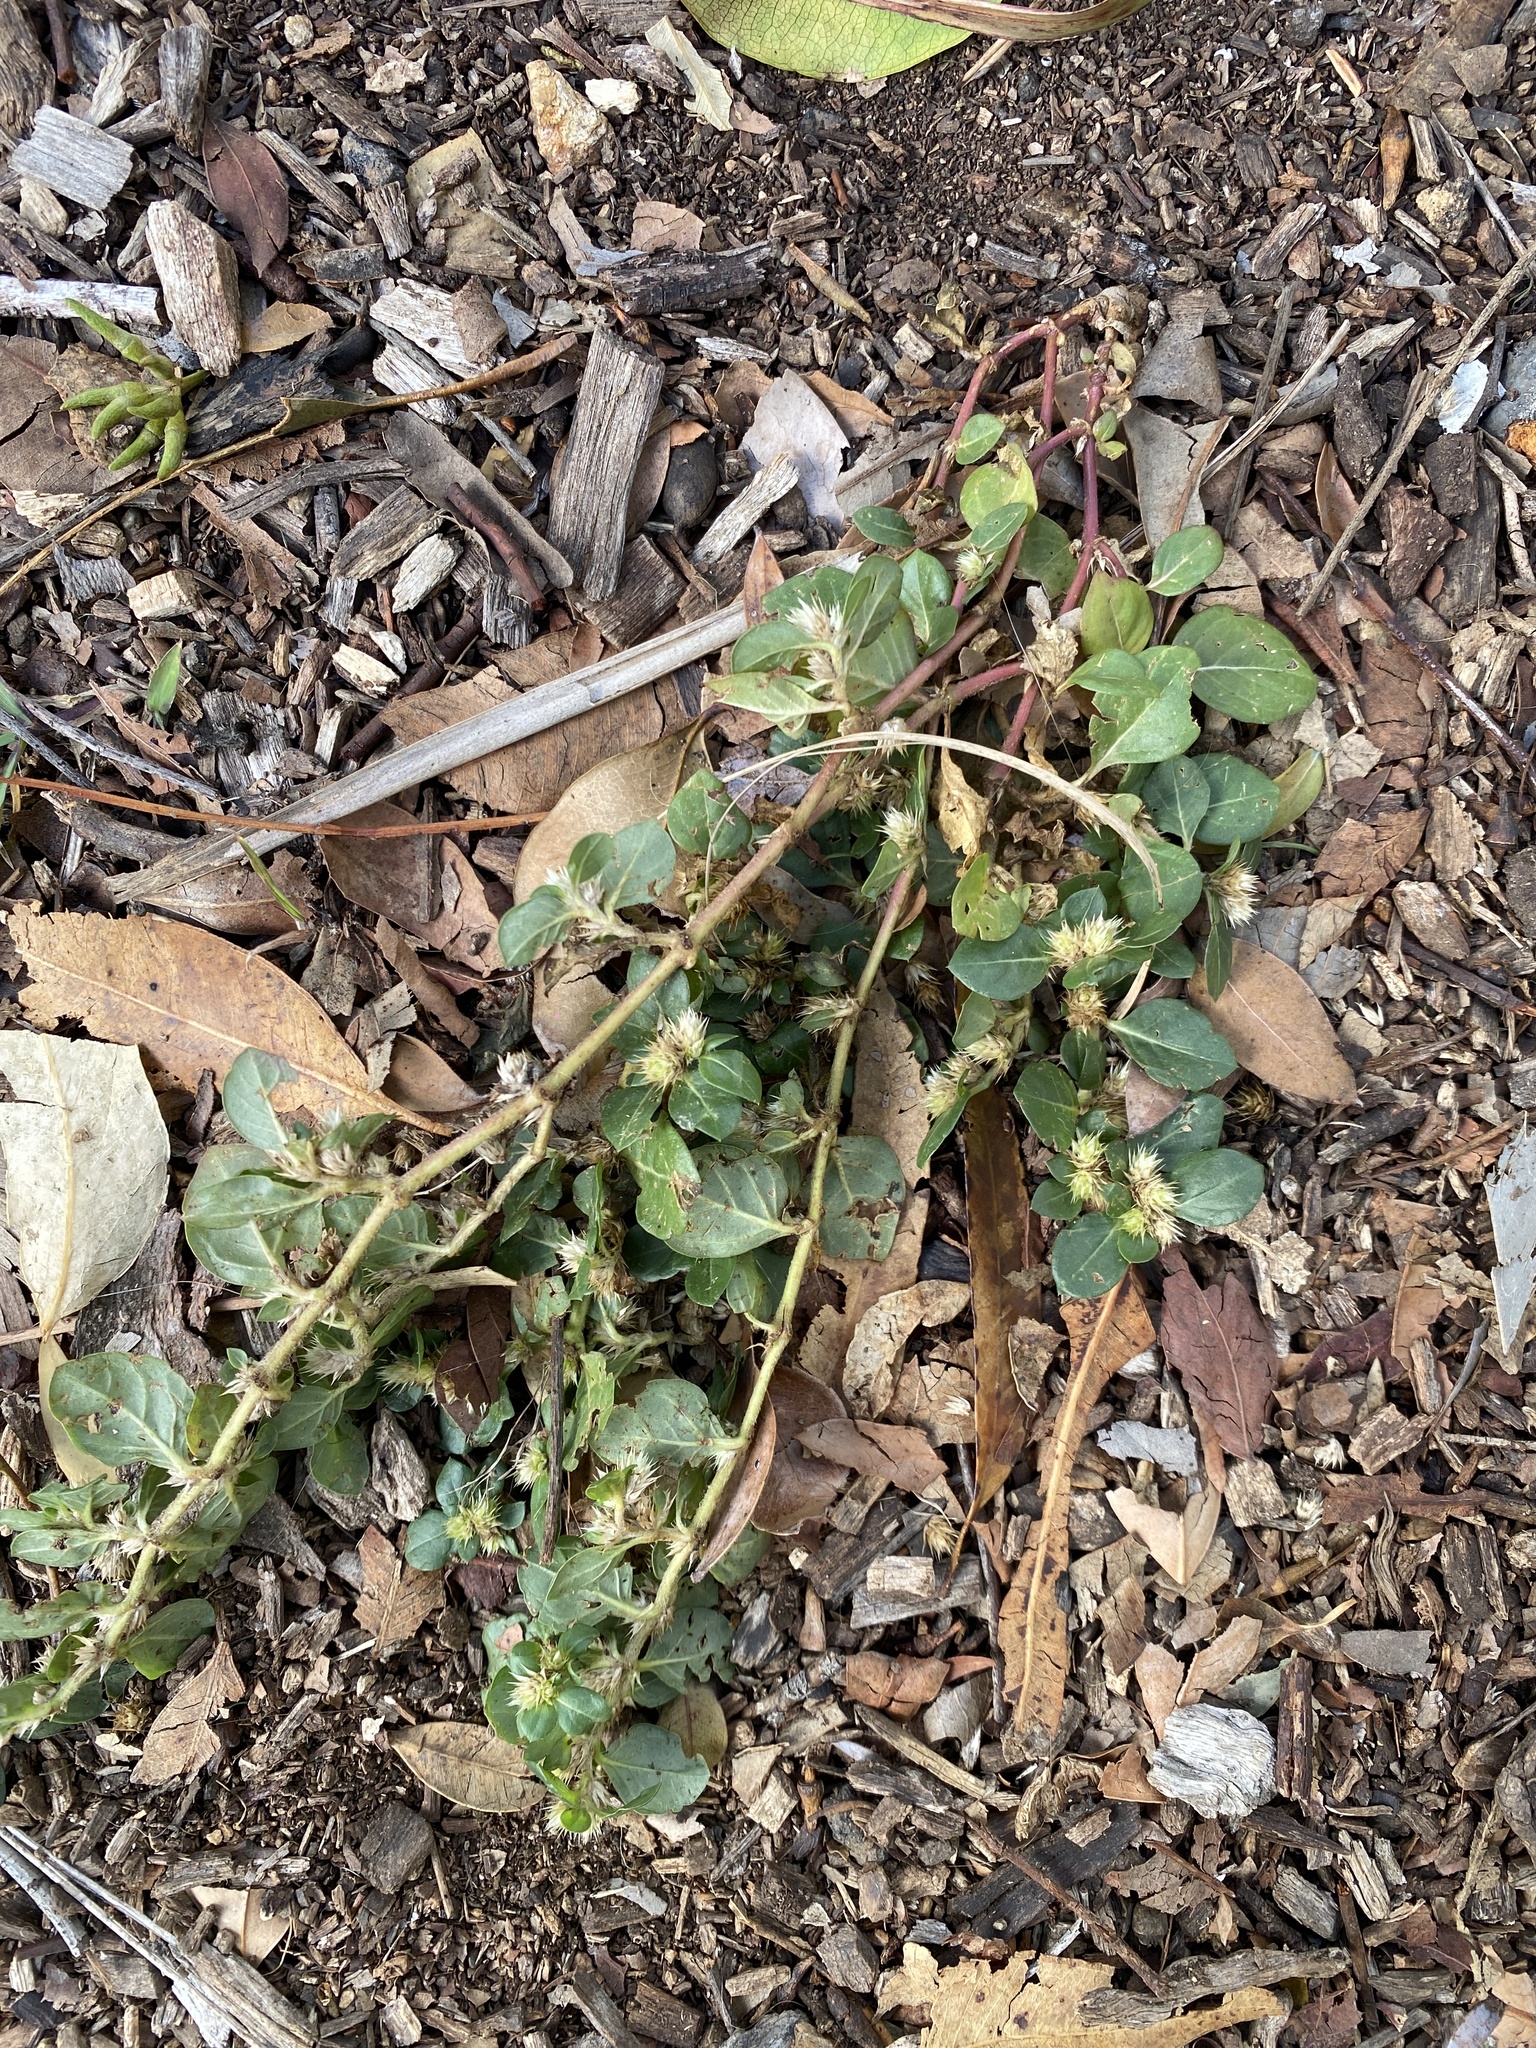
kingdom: Plantae
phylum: Tracheophyta
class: Magnoliopsida
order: Caryophyllales
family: Amaranthaceae
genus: Alternanthera
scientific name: Alternanthera pungens
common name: Khakiweed
